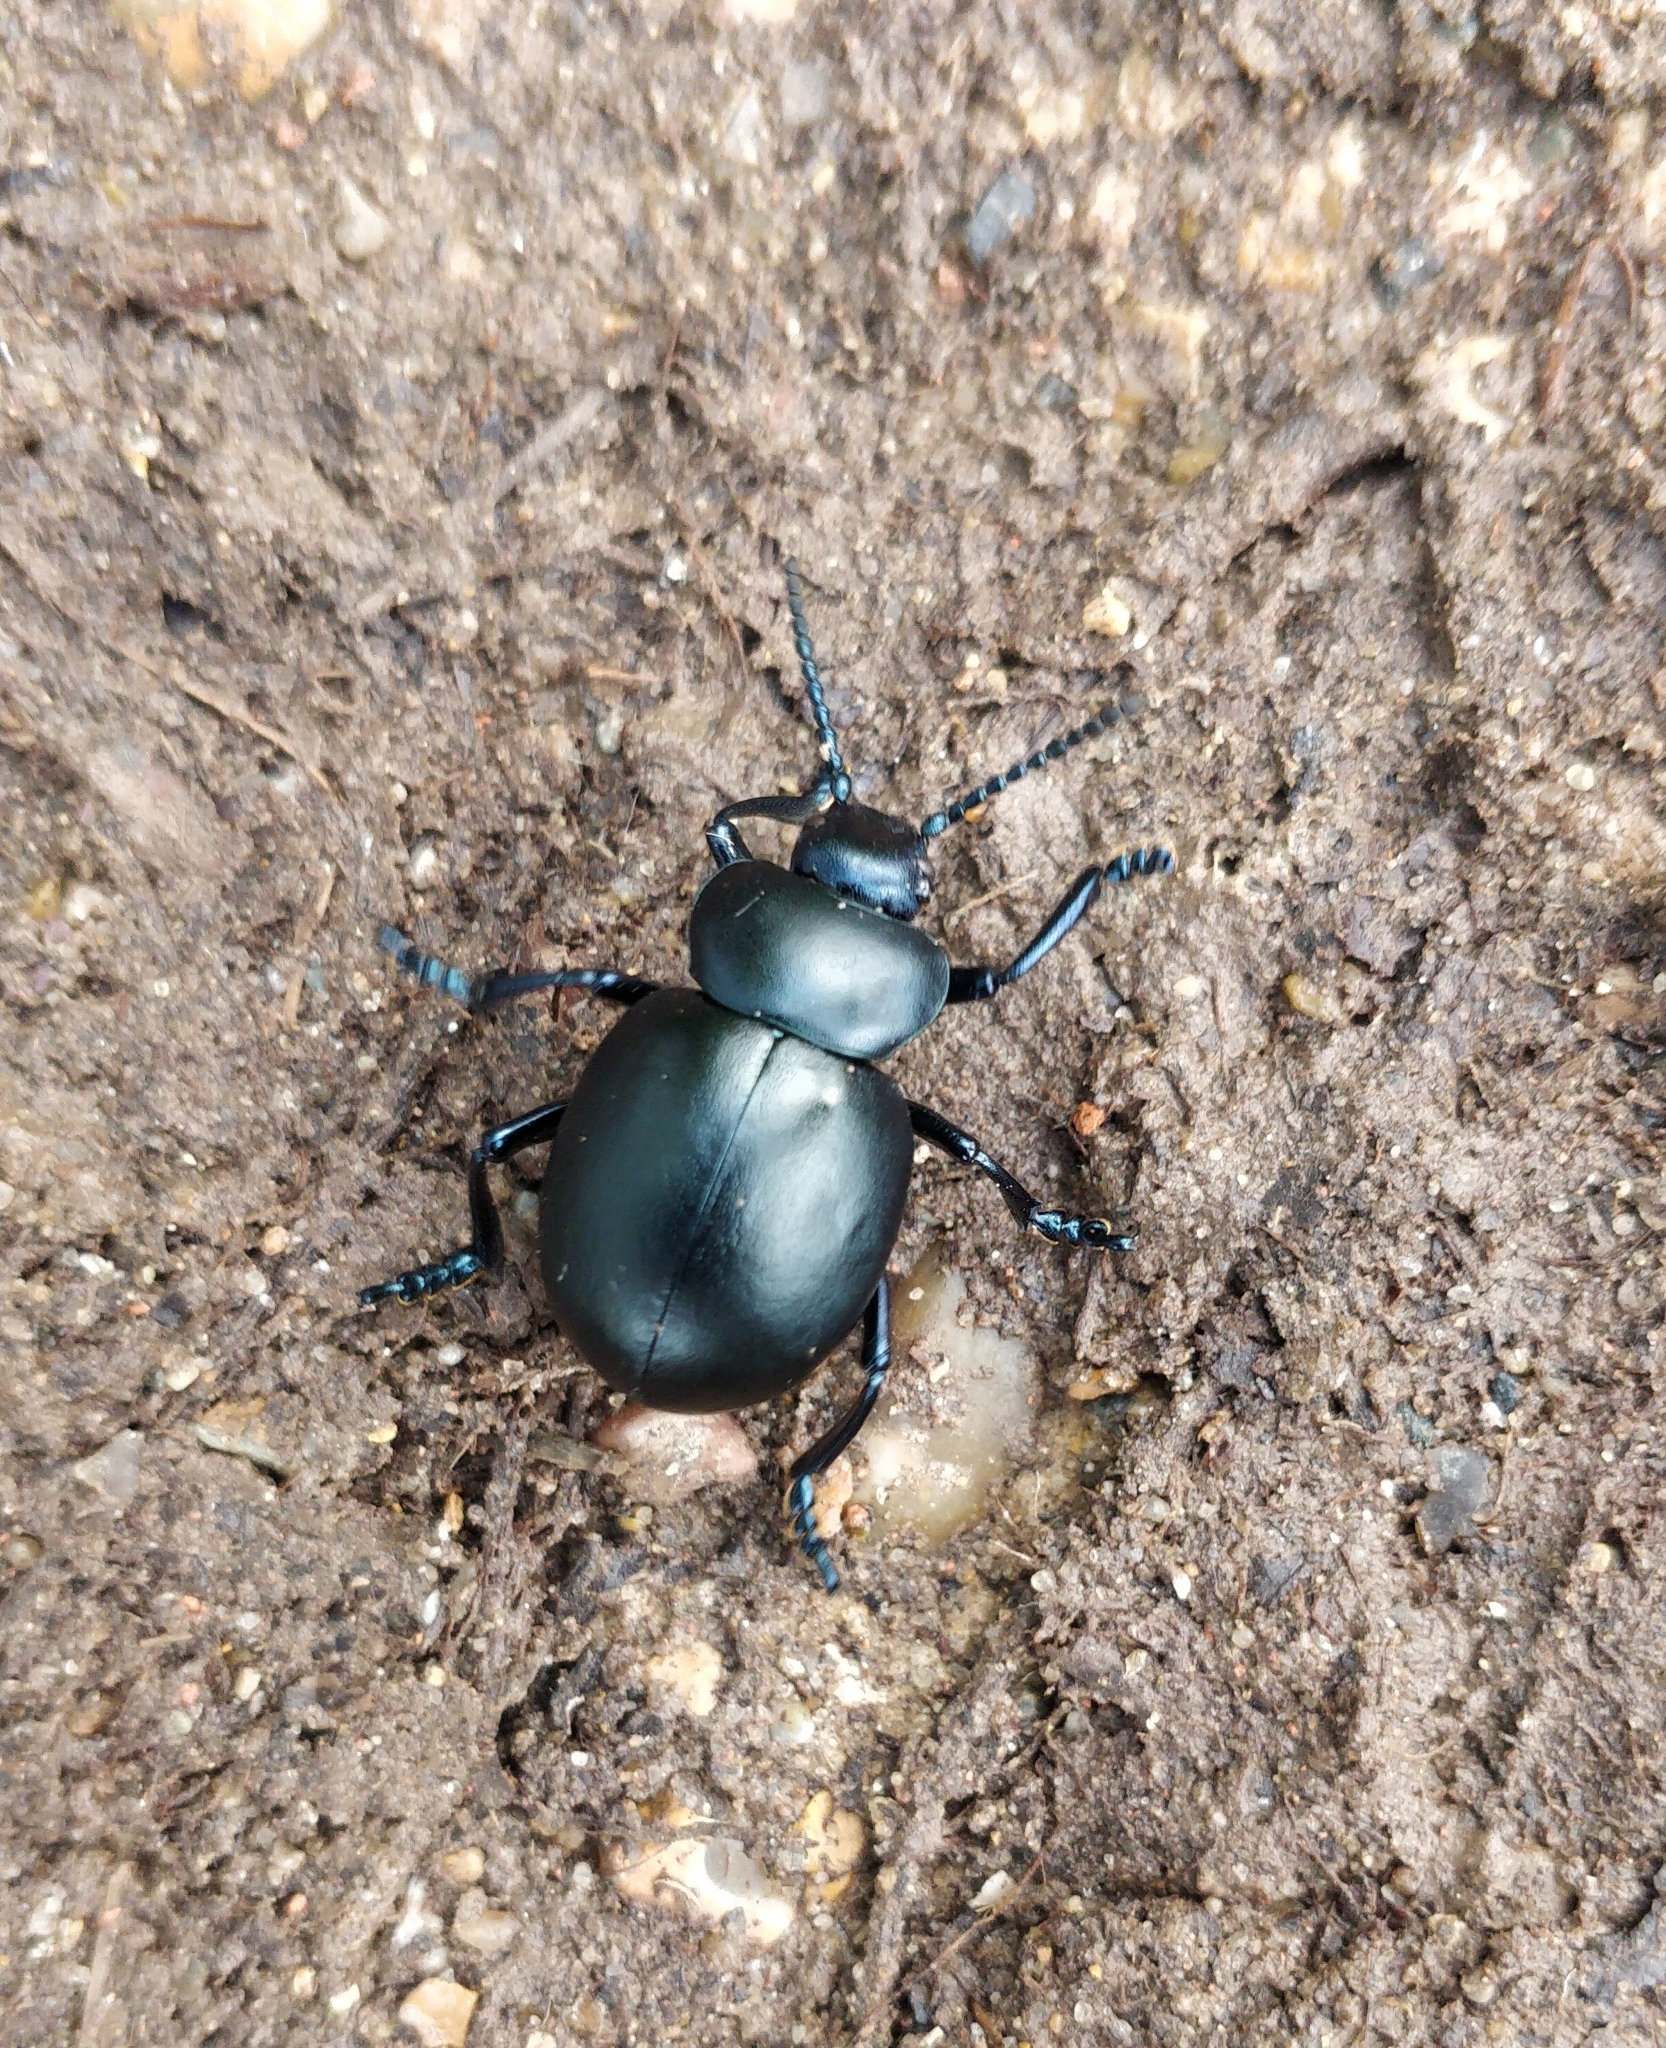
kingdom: Animalia
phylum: Arthropoda
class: Insecta
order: Coleoptera
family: Chrysomelidae
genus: Timarcha
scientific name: Timarcha tenebricosa
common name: Bloody-nosed beetle
